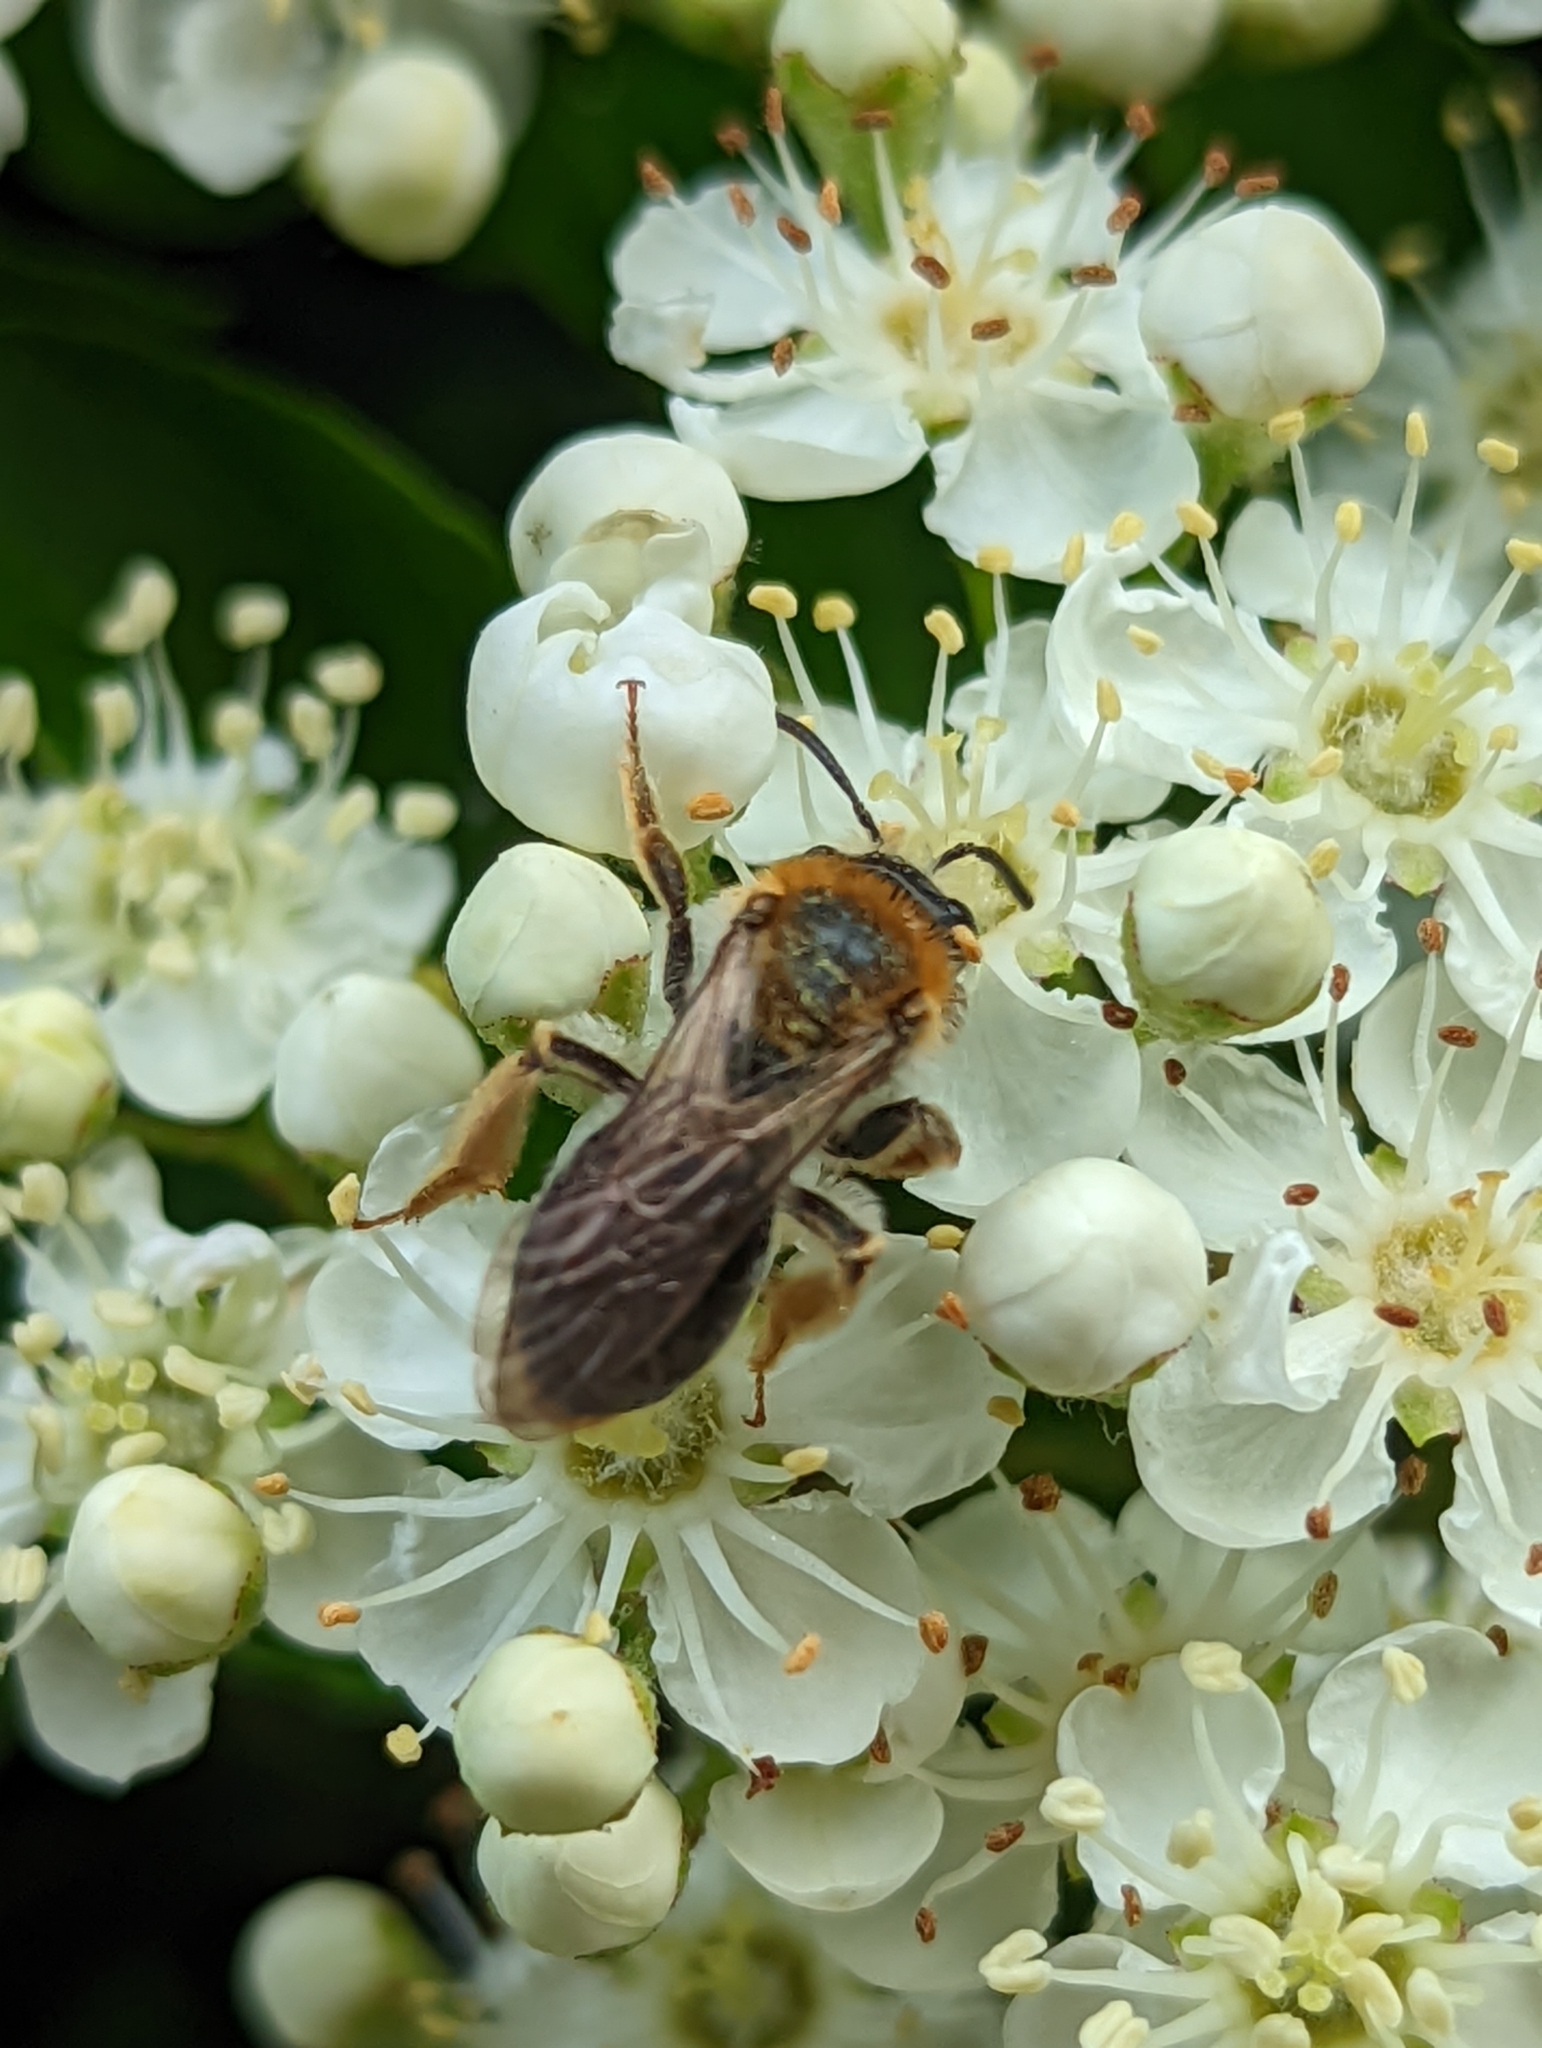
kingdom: Animalia
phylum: Arthropoda
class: Insecta
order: Hymenoptera
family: Andrenidae
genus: Andrena
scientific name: Andrena haemorrhoa
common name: Early mining bee
